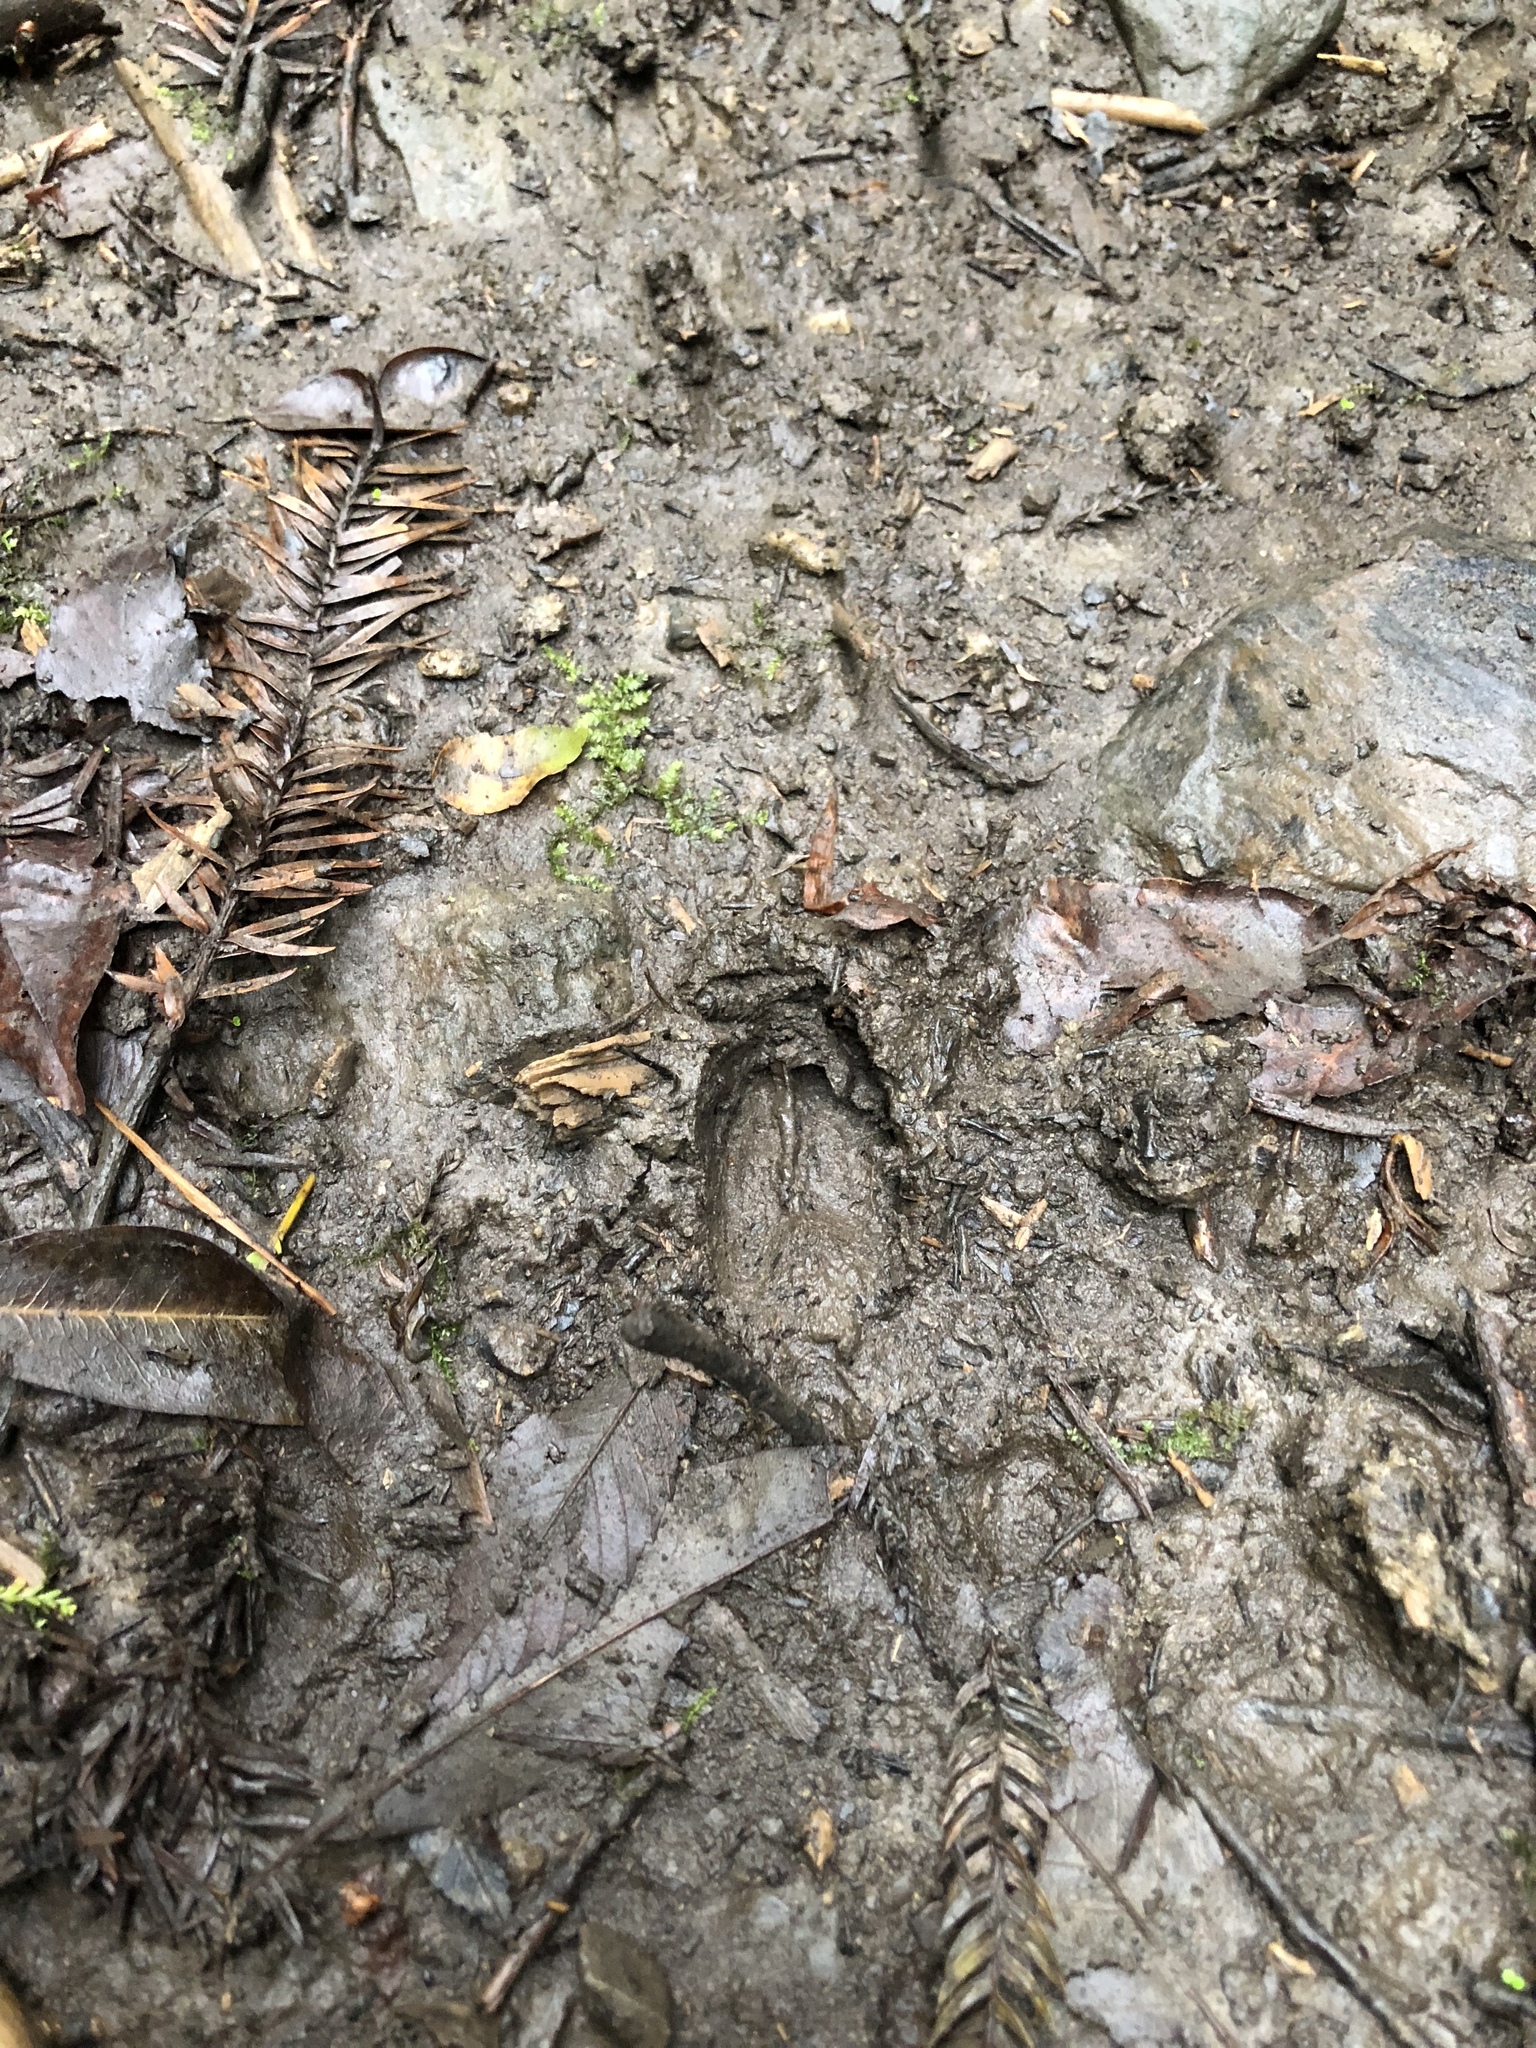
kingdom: Animalia
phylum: Chordata
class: Mammalia
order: Artiodactyla
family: Cervidae
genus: Muntiacus
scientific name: Muntiacus reevesi
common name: Reeves' muntjac
